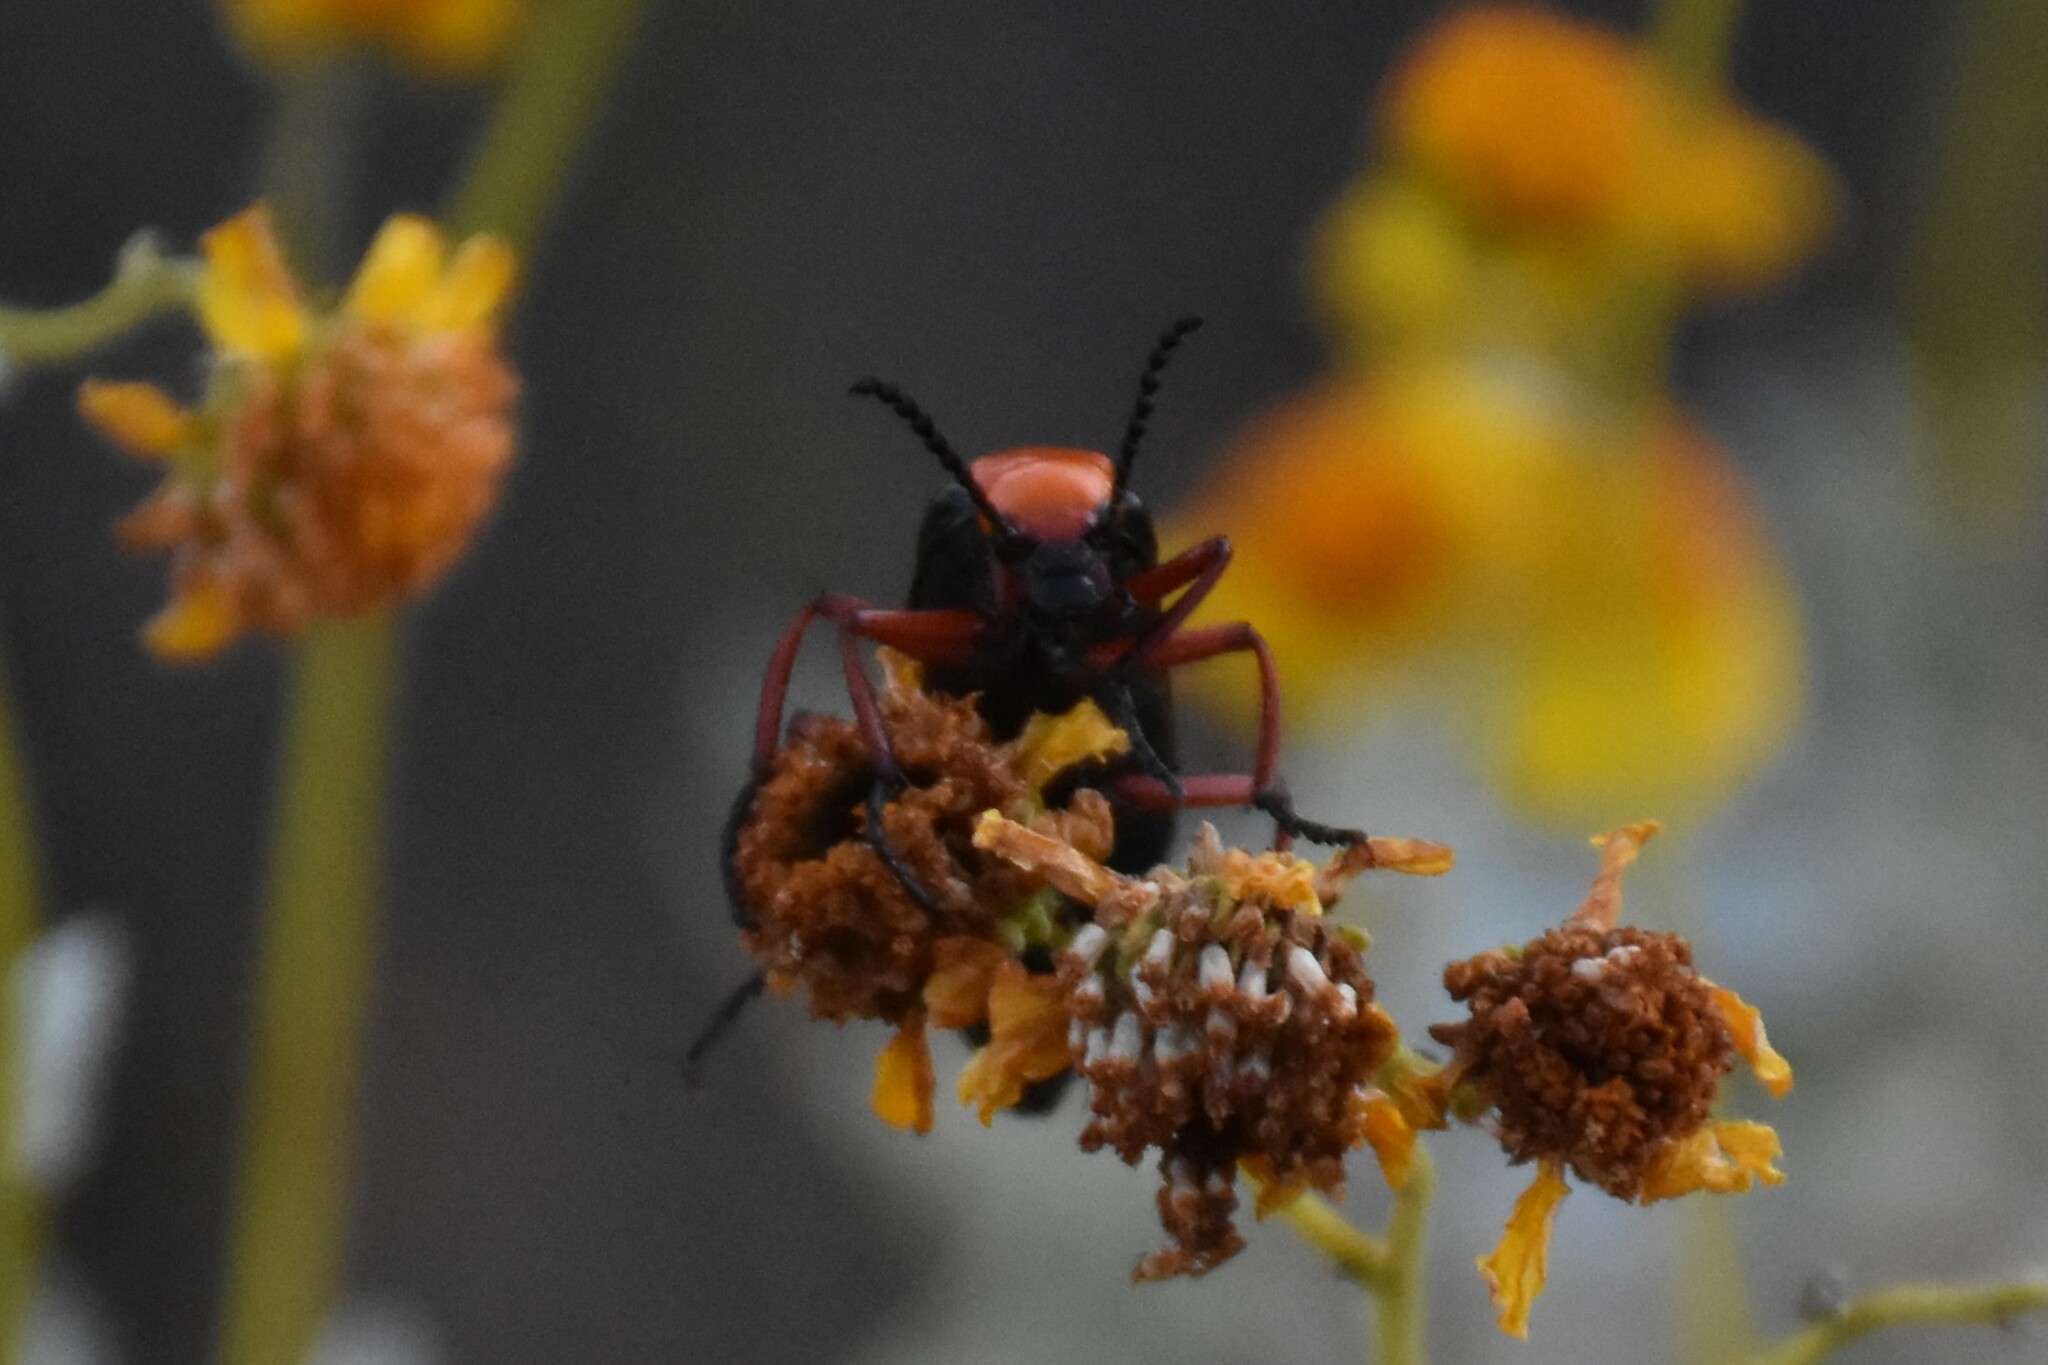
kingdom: Animalia
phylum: Arthropoda
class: Insecta
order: Coleoptera
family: Meloidae
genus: Lytta
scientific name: Lytta magister
